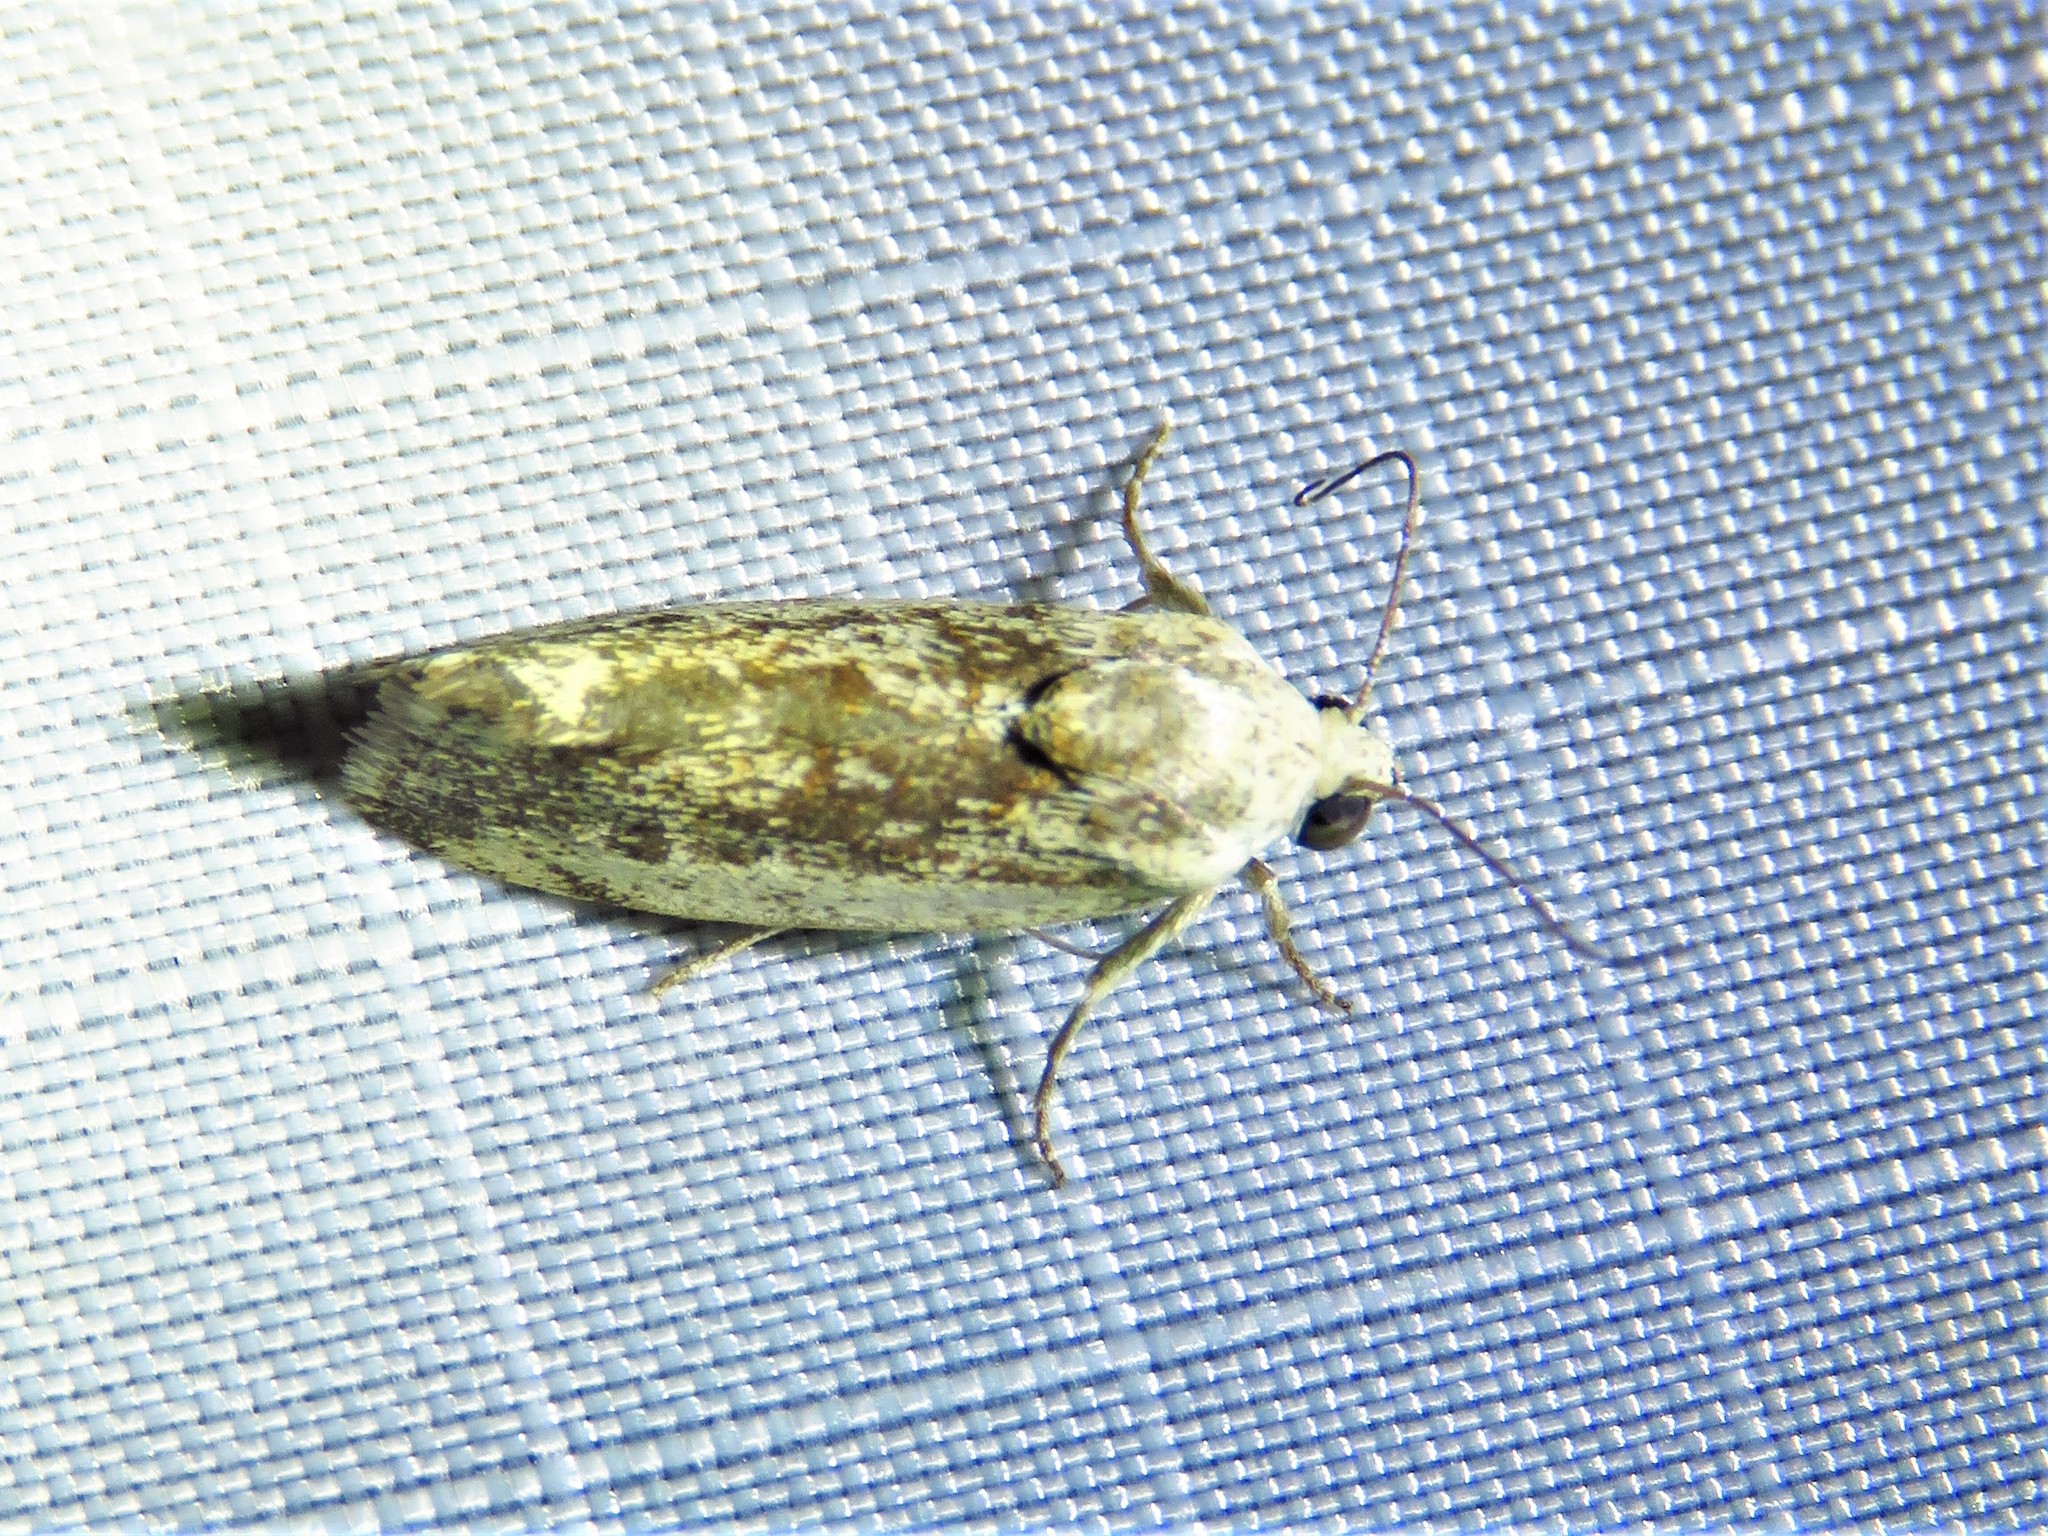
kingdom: Animalia
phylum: Arthropoda
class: Insecta
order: Lepidoptera
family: Noctuidae
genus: Acontia
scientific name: Acontia fasciatella
